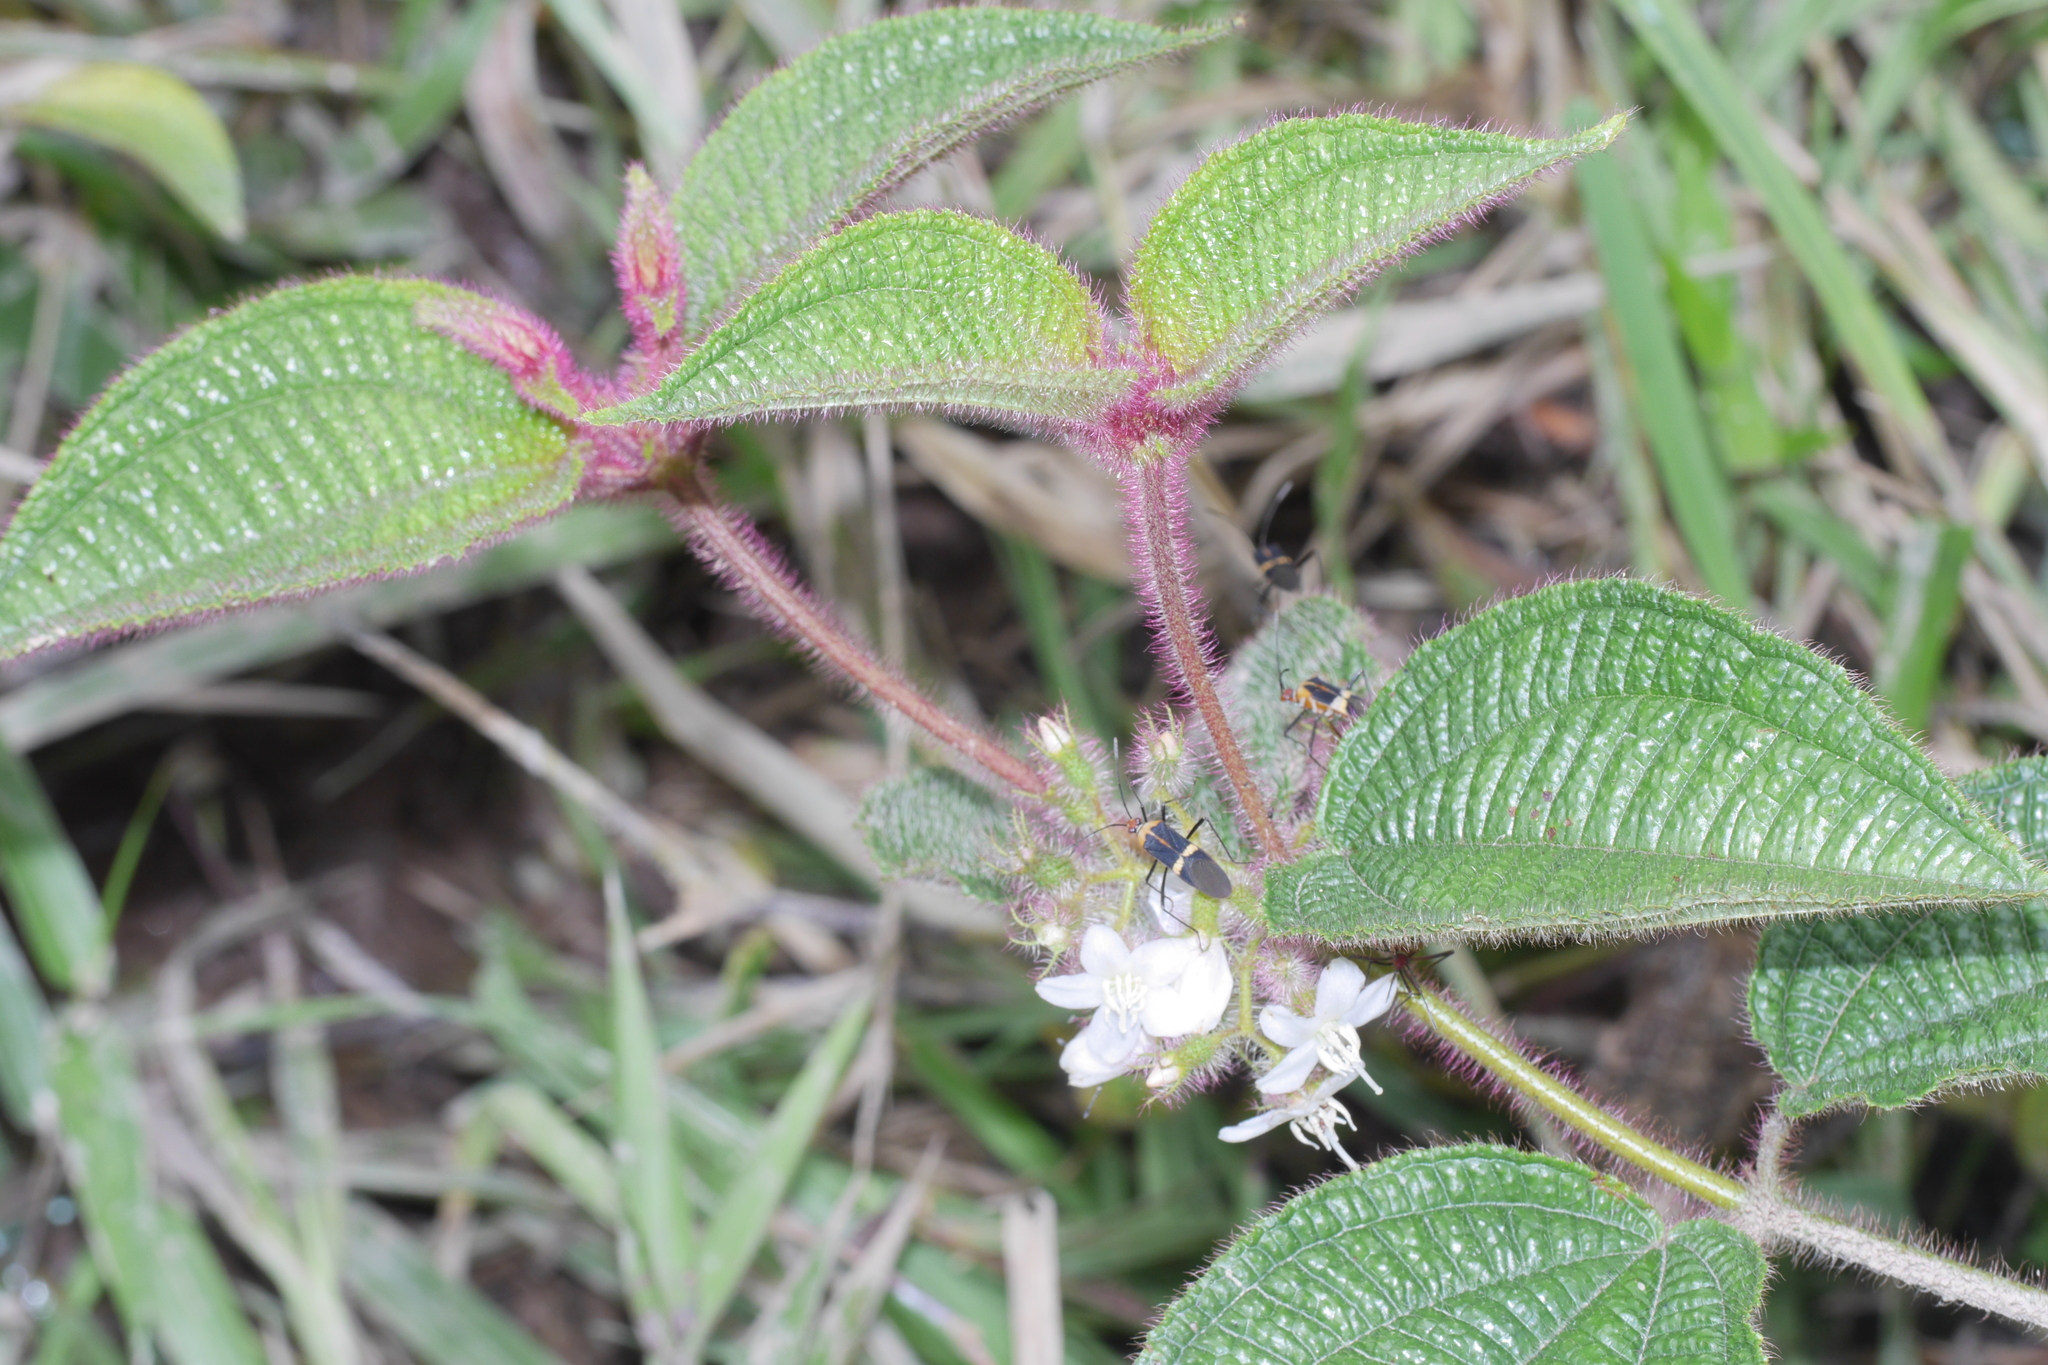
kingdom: Plantae
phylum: Tracheophyta
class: Magnoliopsida
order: Myrtales
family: Melastomataceae
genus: Miconia
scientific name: Miconia crenata
